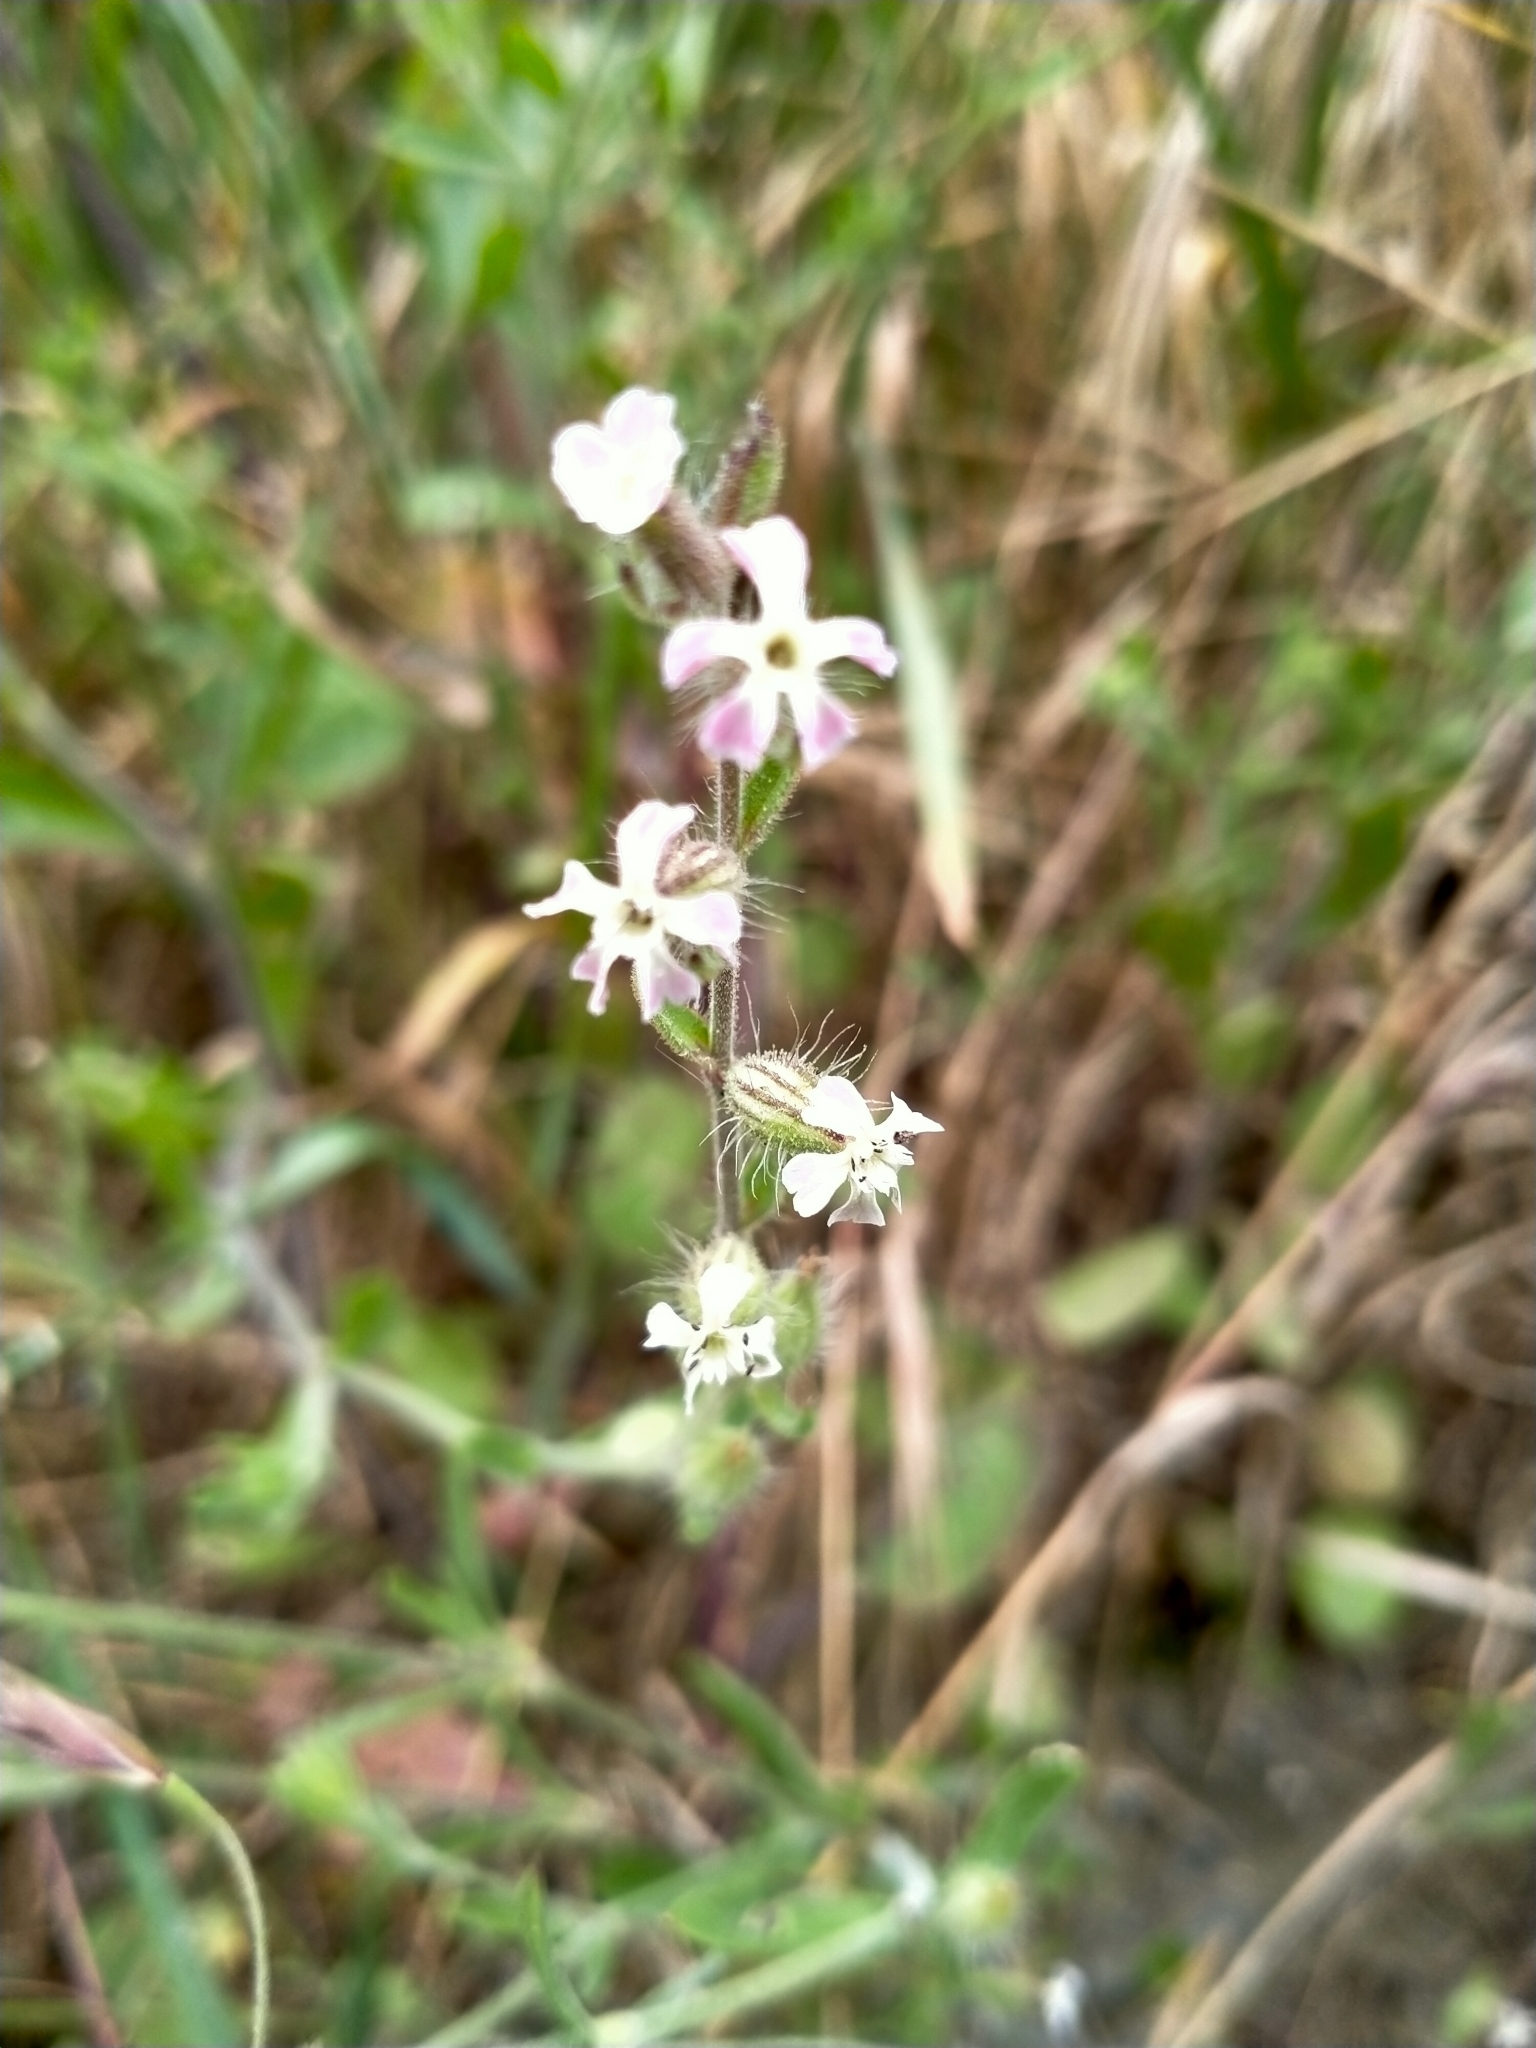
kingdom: Plantae
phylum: Tracheophyta
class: Magnoliopsida
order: Caryophyllales
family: Caryophyllaceae
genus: Silene
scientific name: Silene gallica
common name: Small-flowered catchfly
